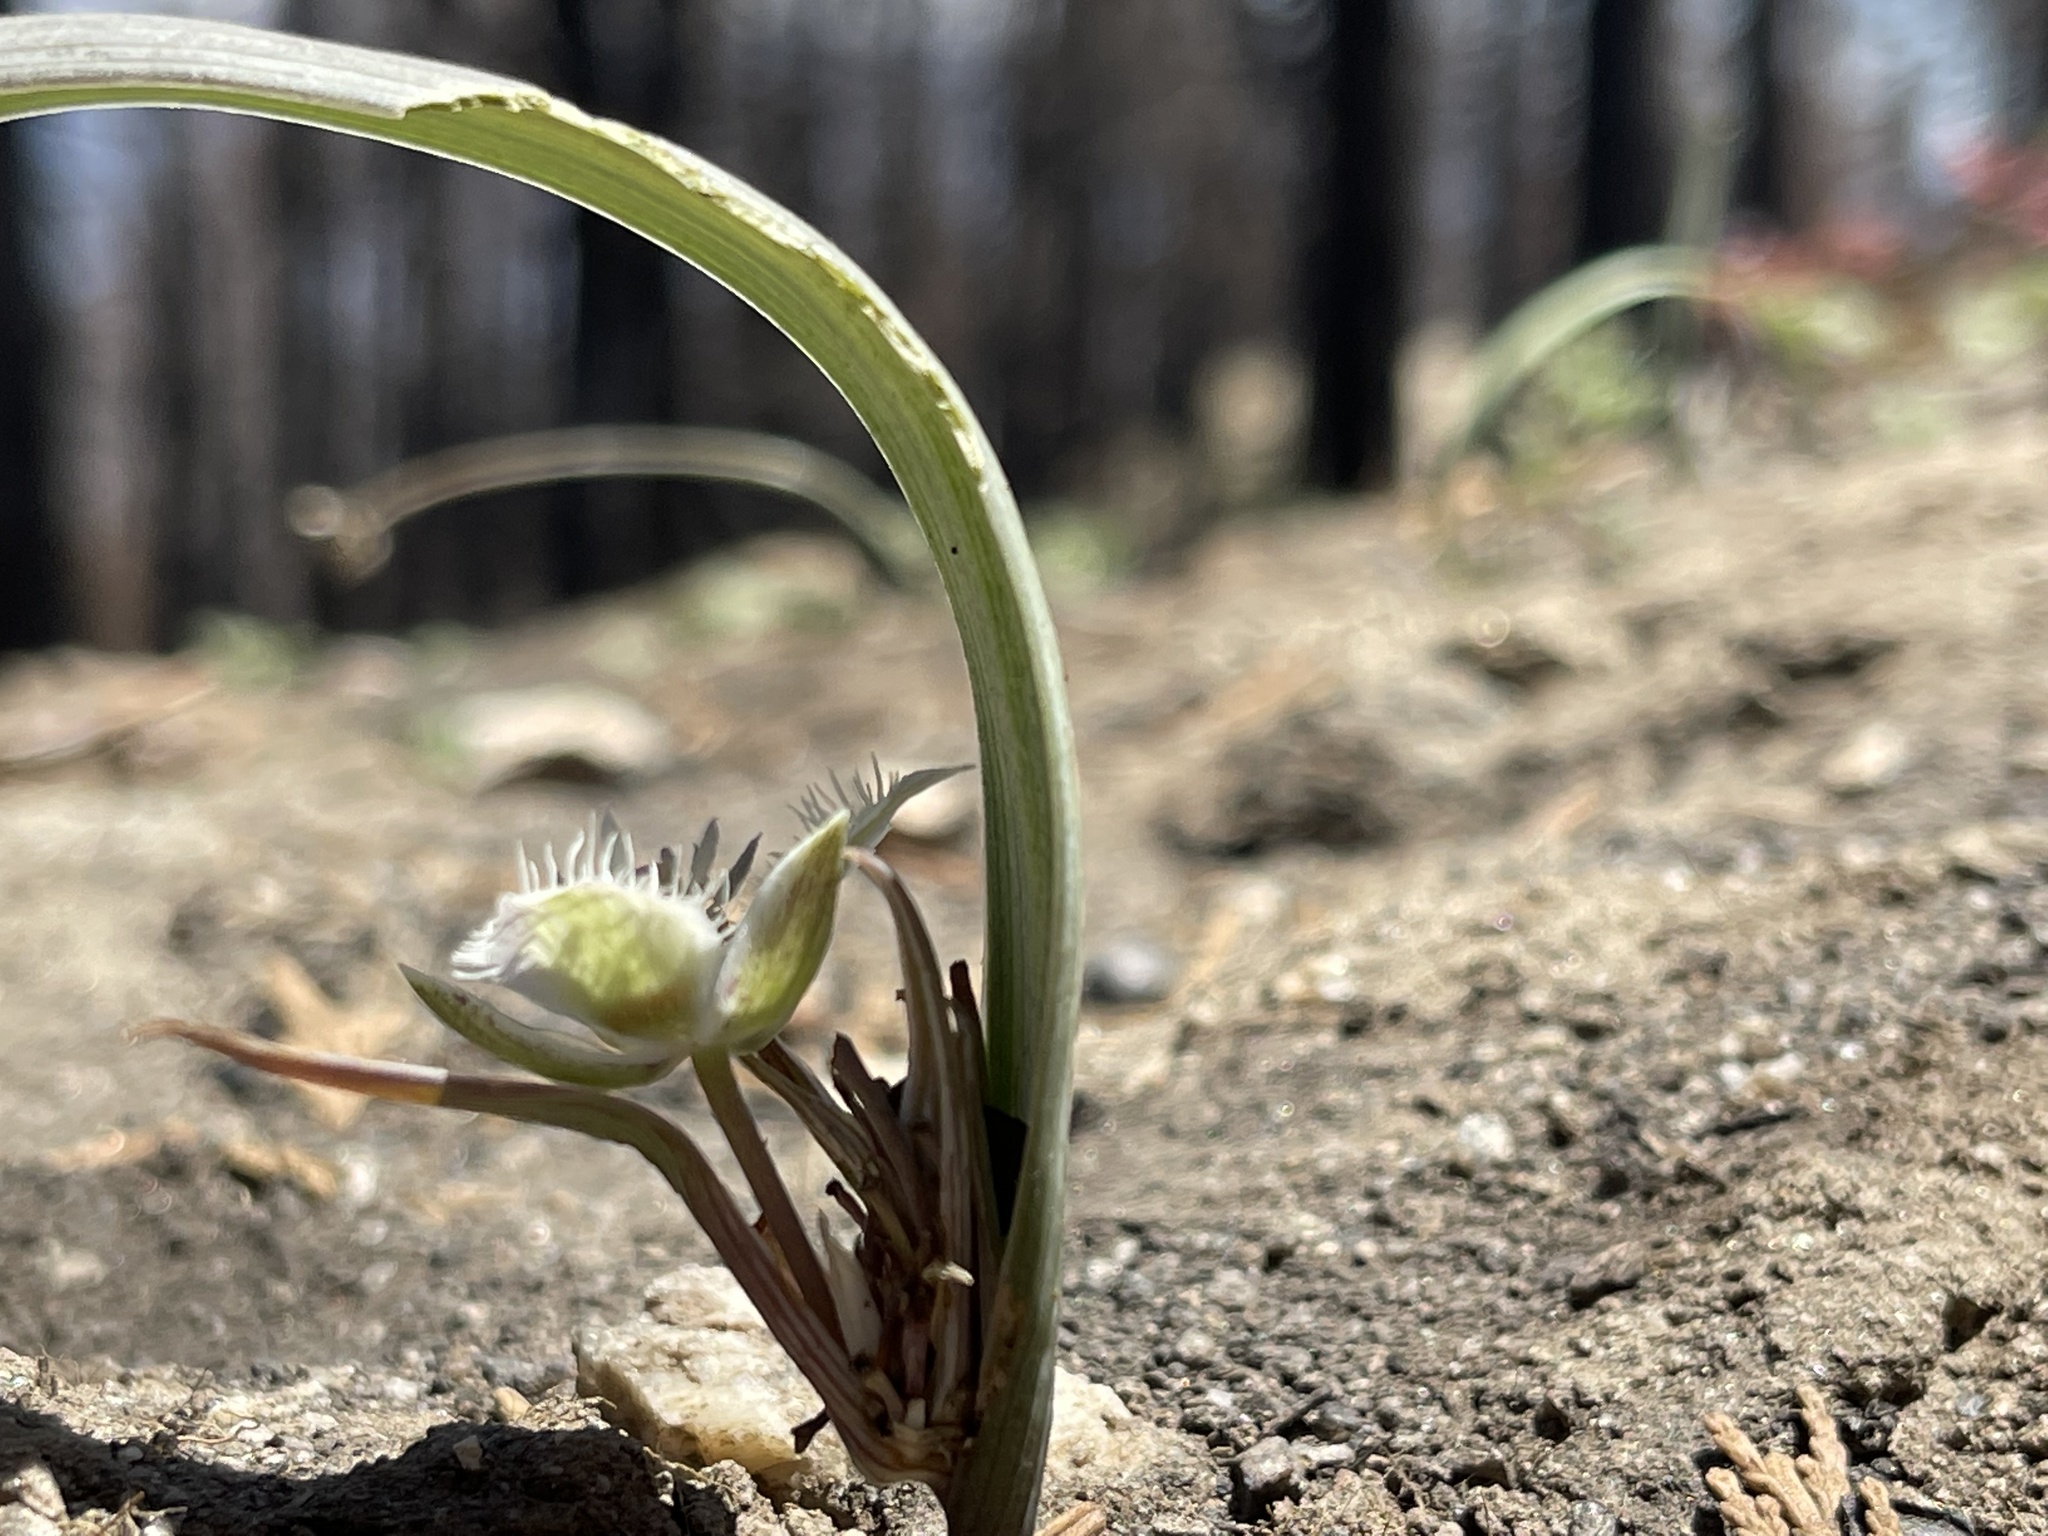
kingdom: Plantae
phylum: Tracheophyta
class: Liliopsida
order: Liliales
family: Liliaceae
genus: Calochortus
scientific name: Calochortus westonii
